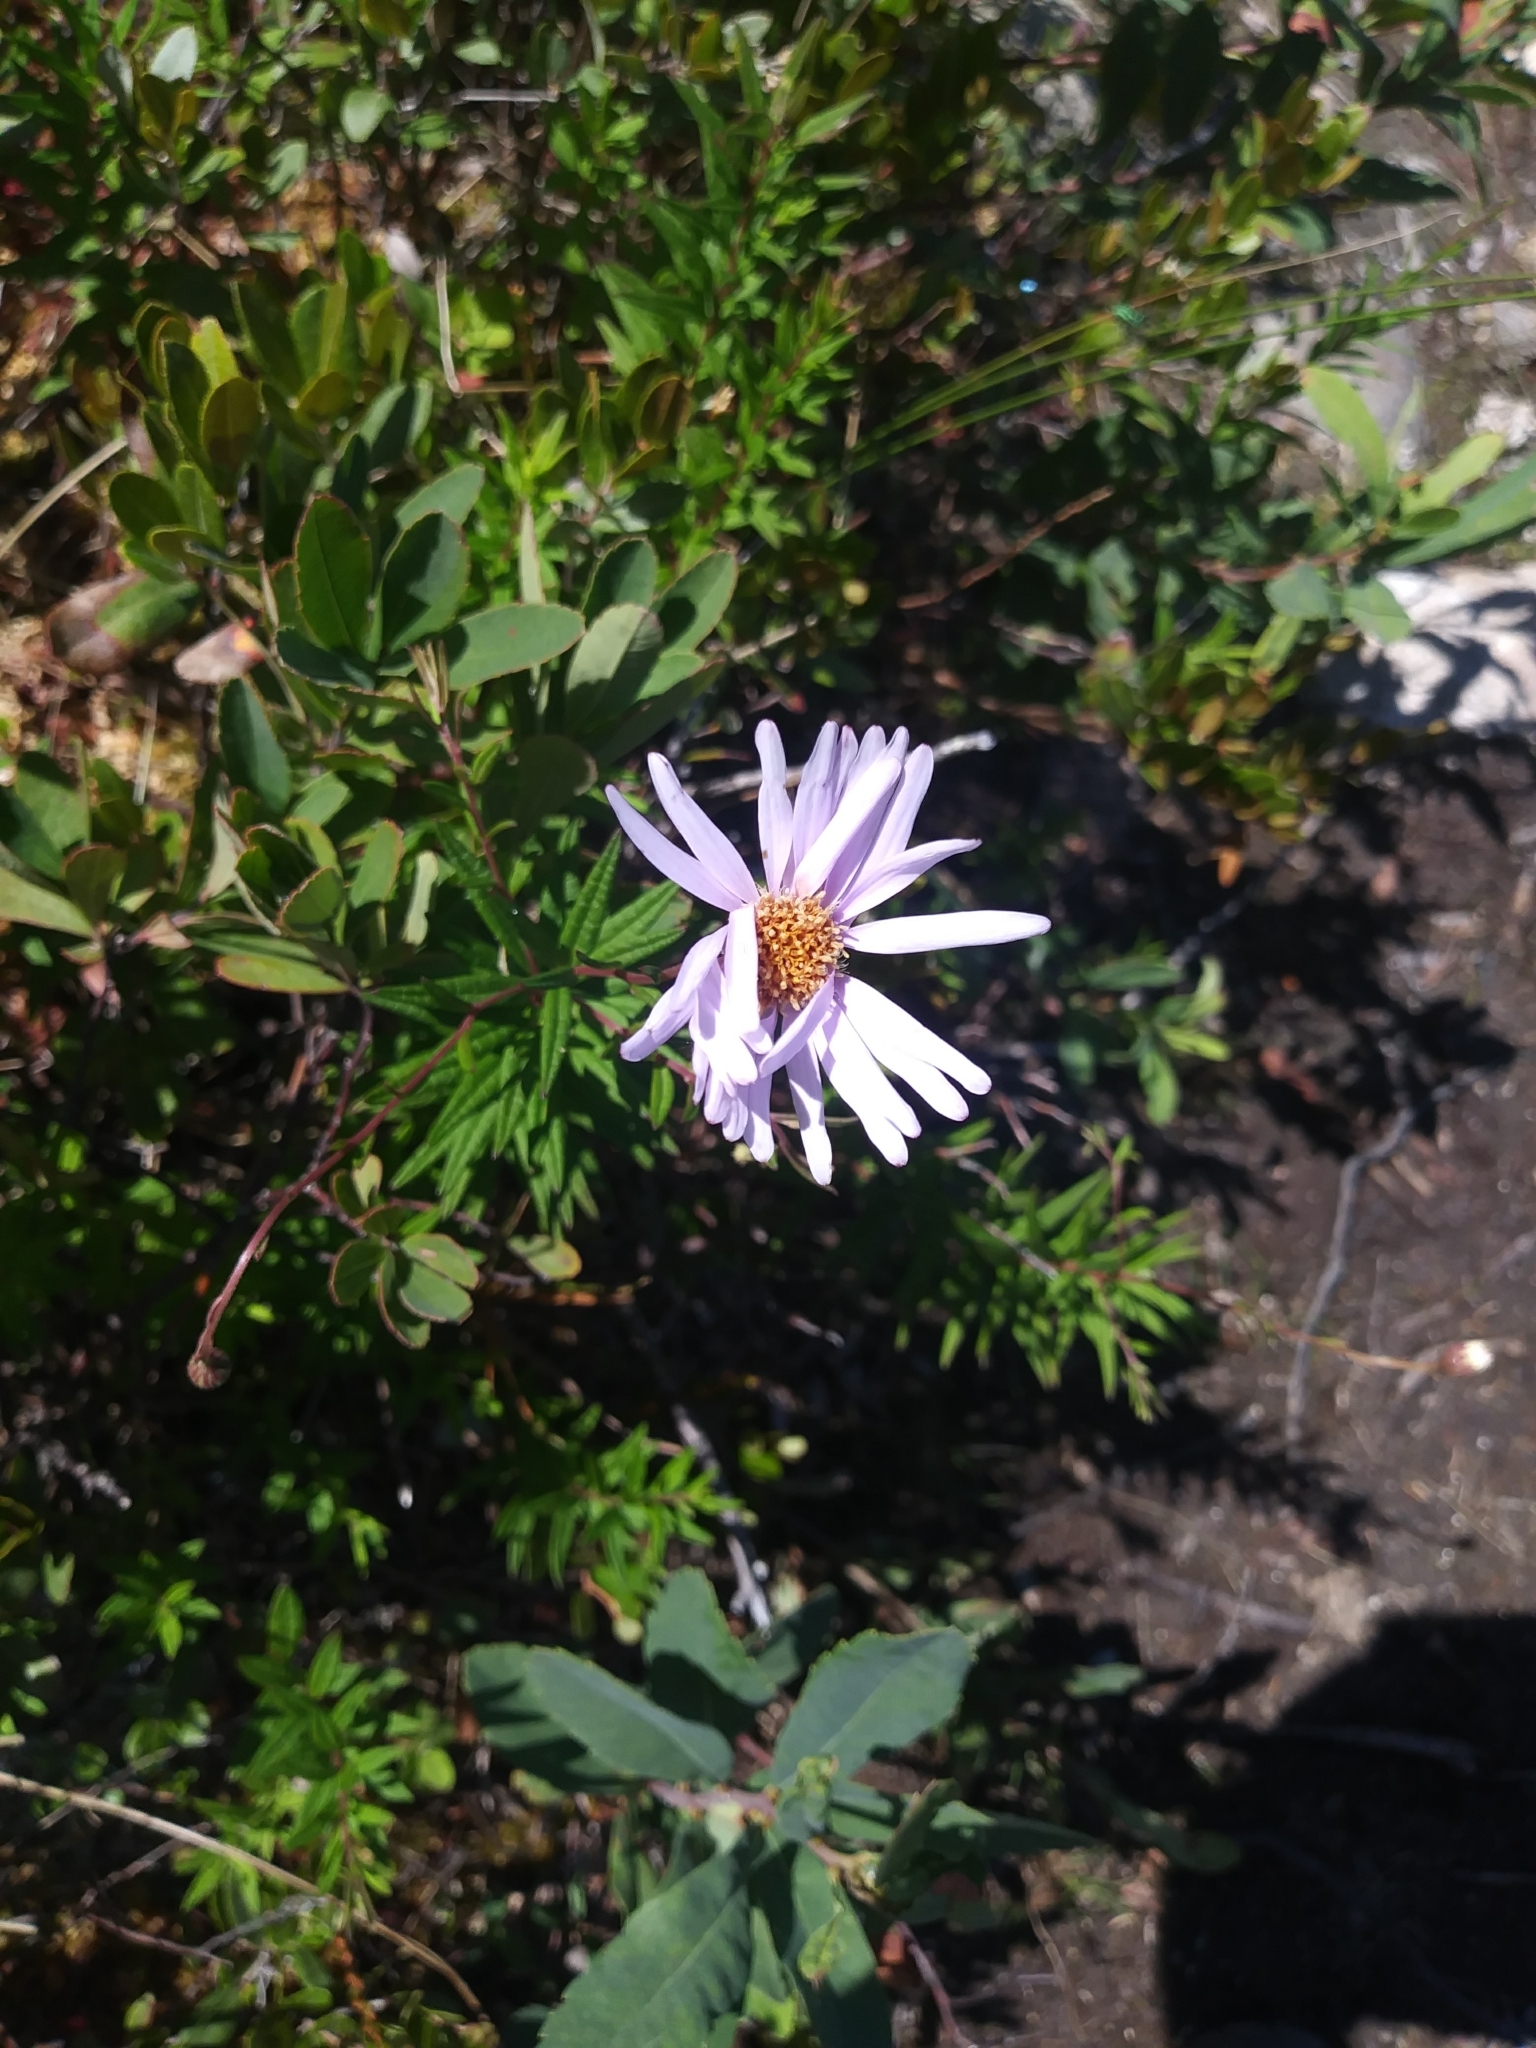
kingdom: Plantae
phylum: Tracheophyta
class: Magnoliopsida
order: Asterales
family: Asteraceae
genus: Oclemena
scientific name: Oclemena nemoralis
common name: Bog aster
